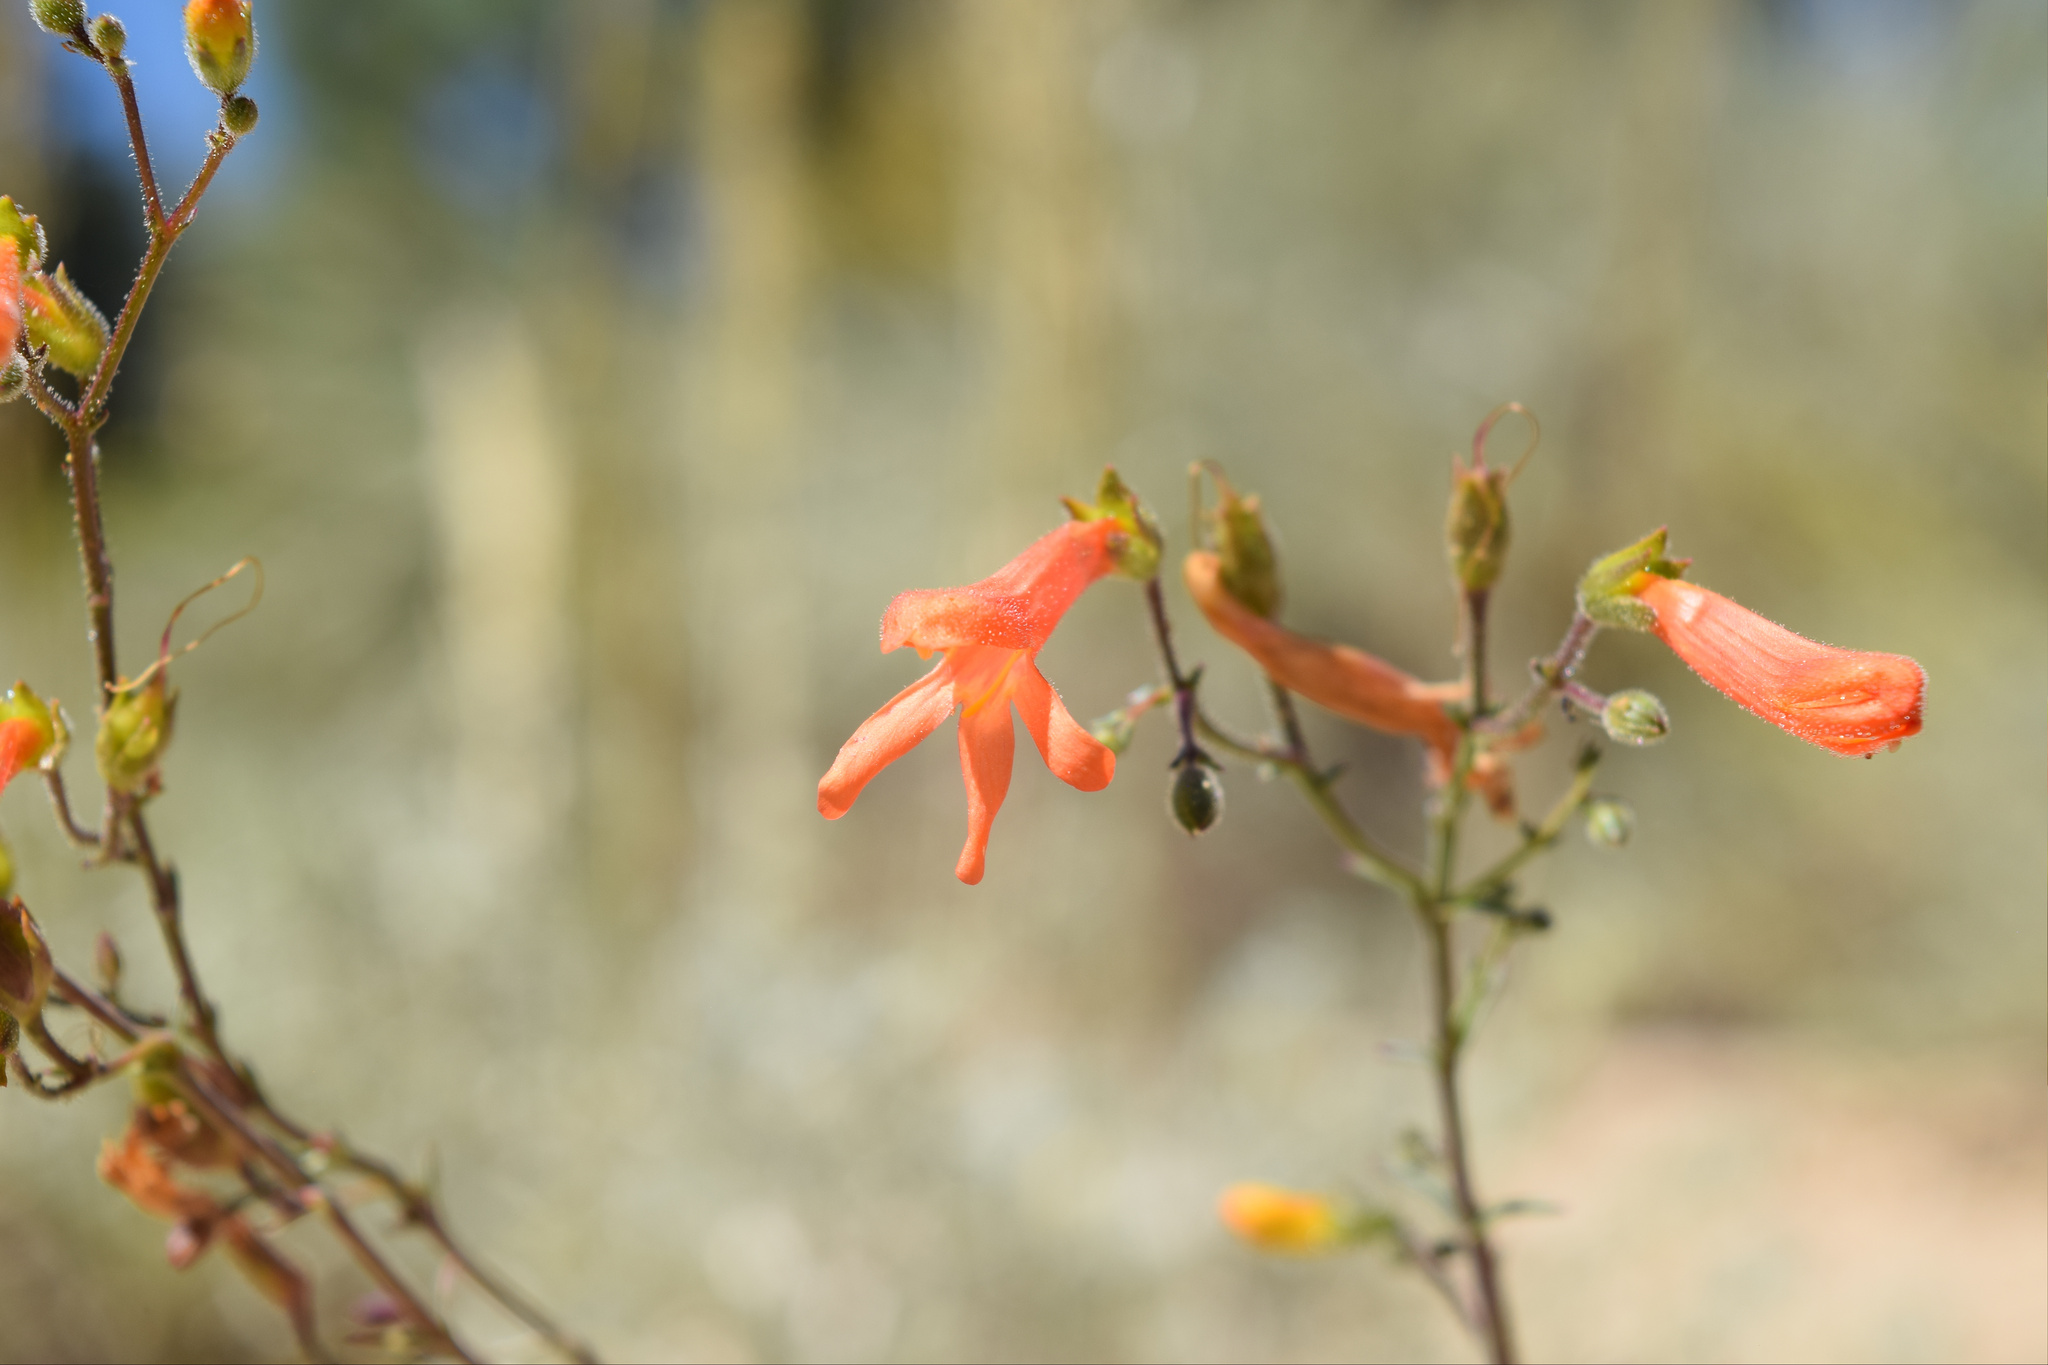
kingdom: Plantae
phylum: Tracheophyta
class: Magnoliopsida
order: Lamiales
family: Plantaginaceae
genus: Penstemon
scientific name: Penstemon rostriflorus
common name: Bridges's penstemon
